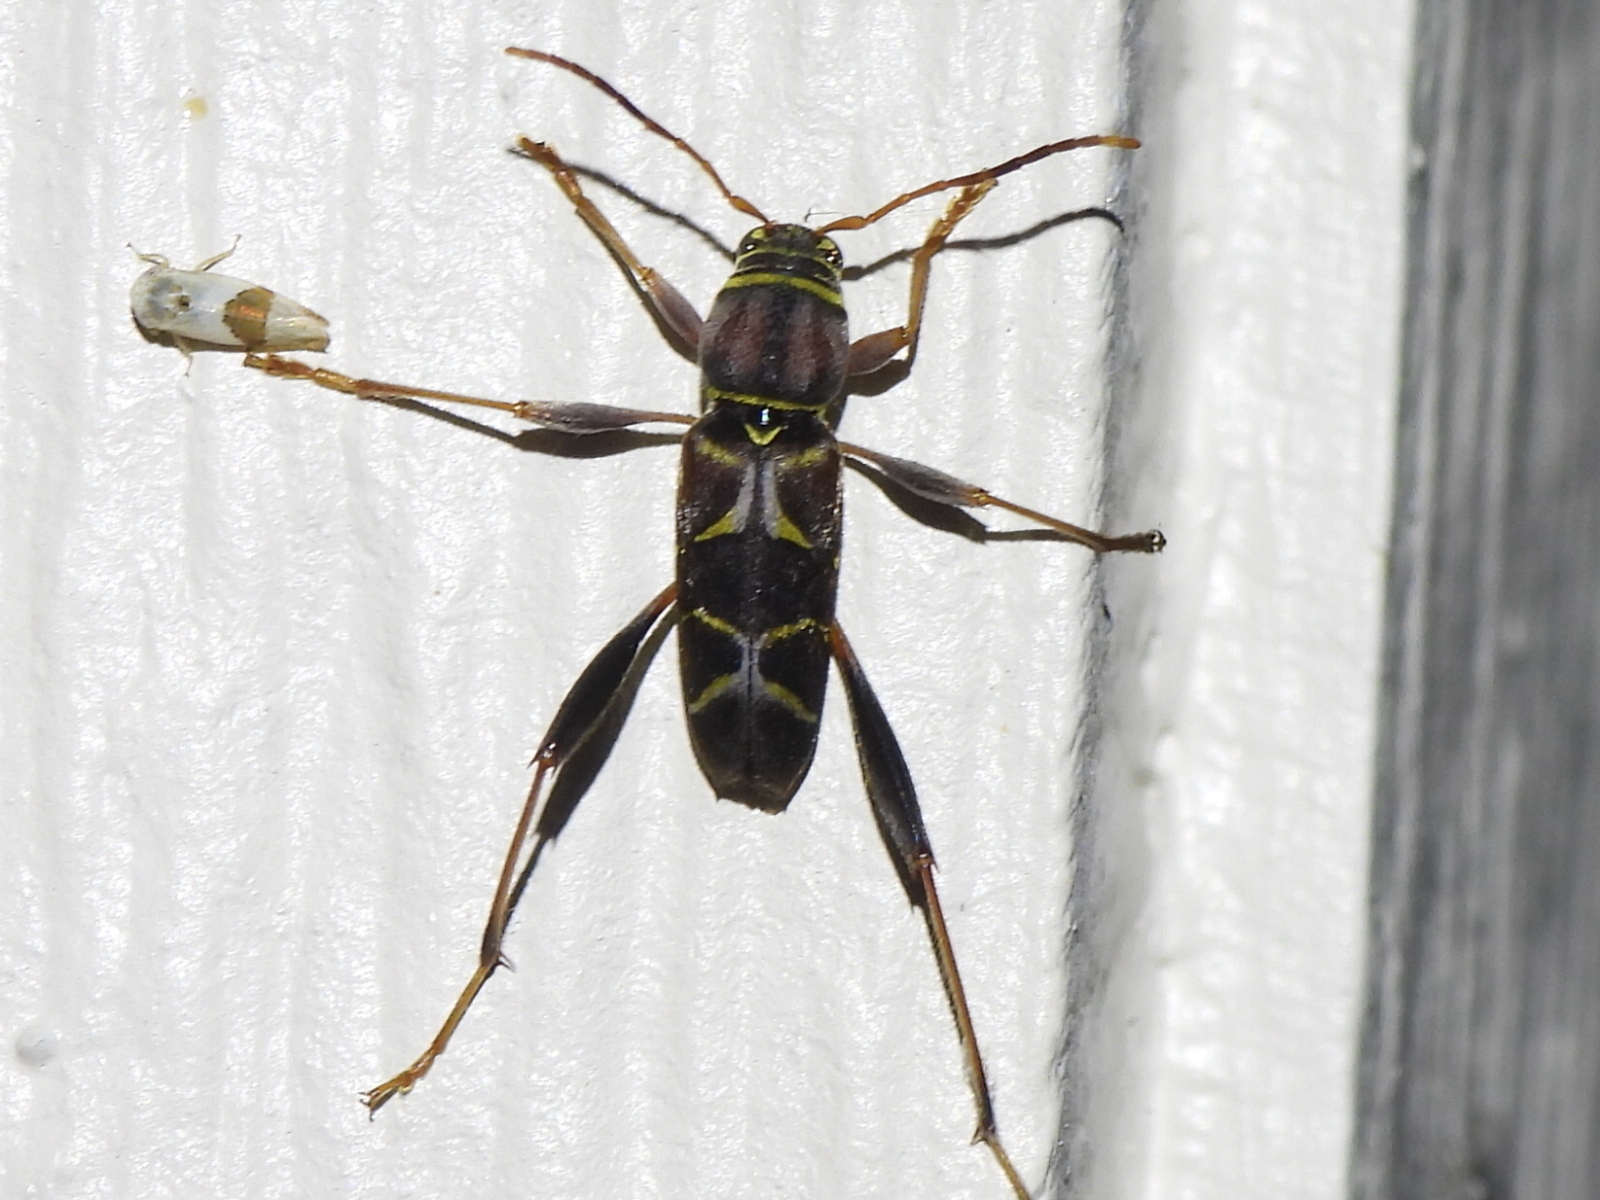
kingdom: Animalia
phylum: Arthropoda
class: Insecta
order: Coleoptera
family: Cerambycidae
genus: Neoclytus
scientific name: Neoclytus mucronatus
